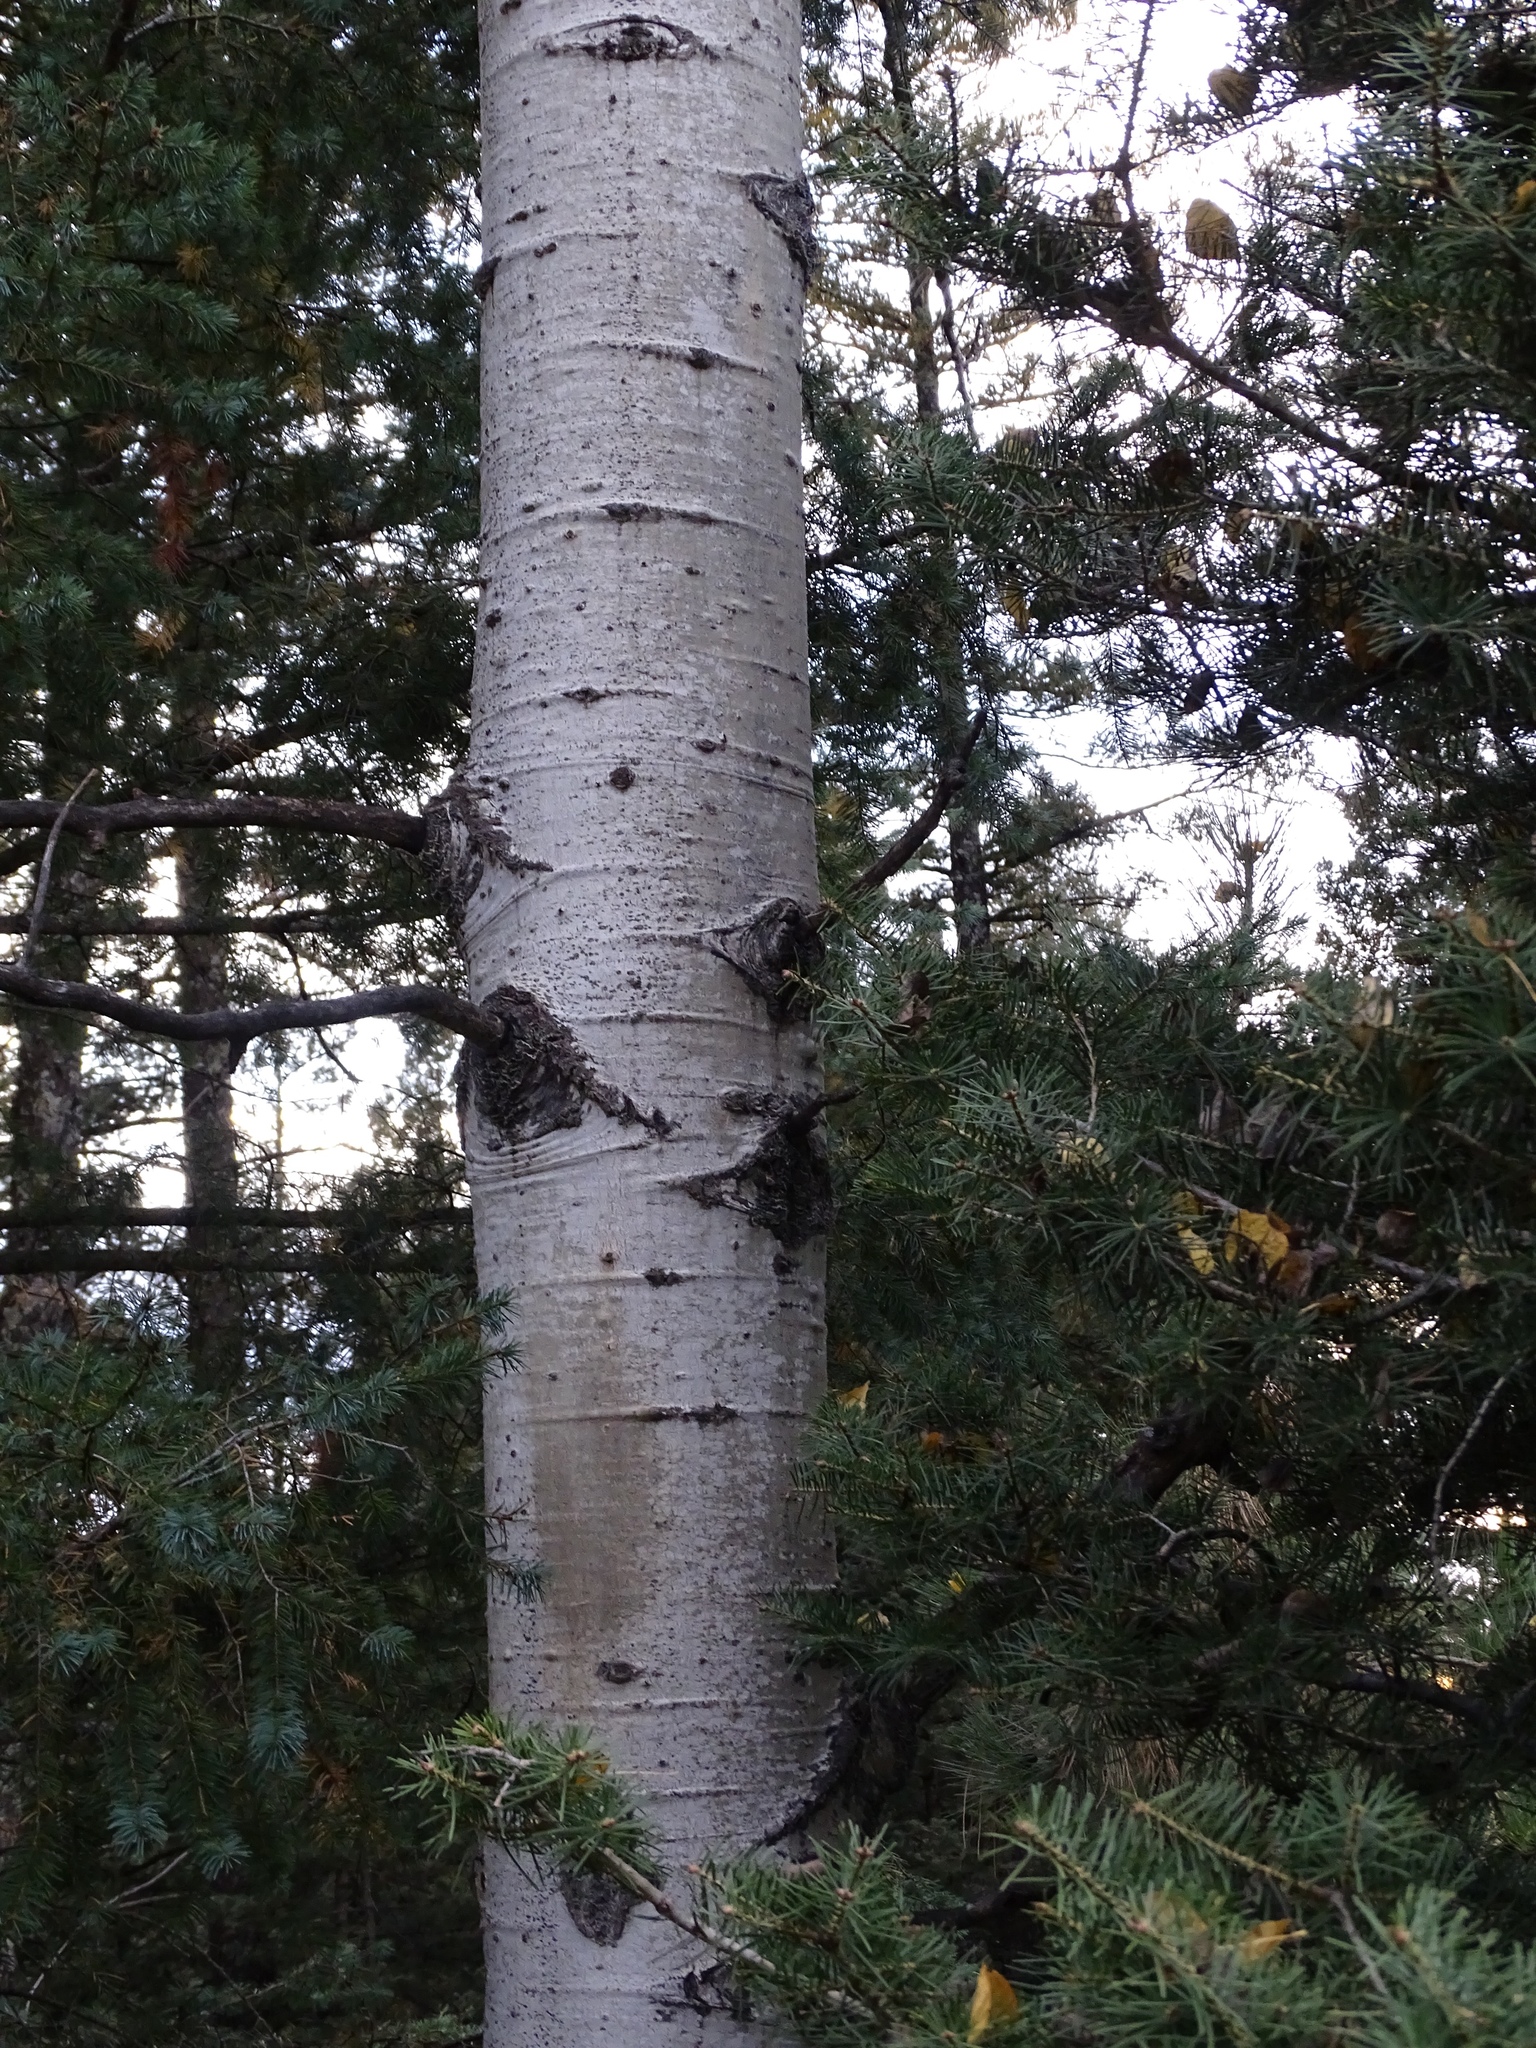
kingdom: Plantae
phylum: Tracheophyta
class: Magnoliopsida
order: Malpighiales
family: Salicaceae
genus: Populus
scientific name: Populus tremuloides
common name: Quaking aspen
